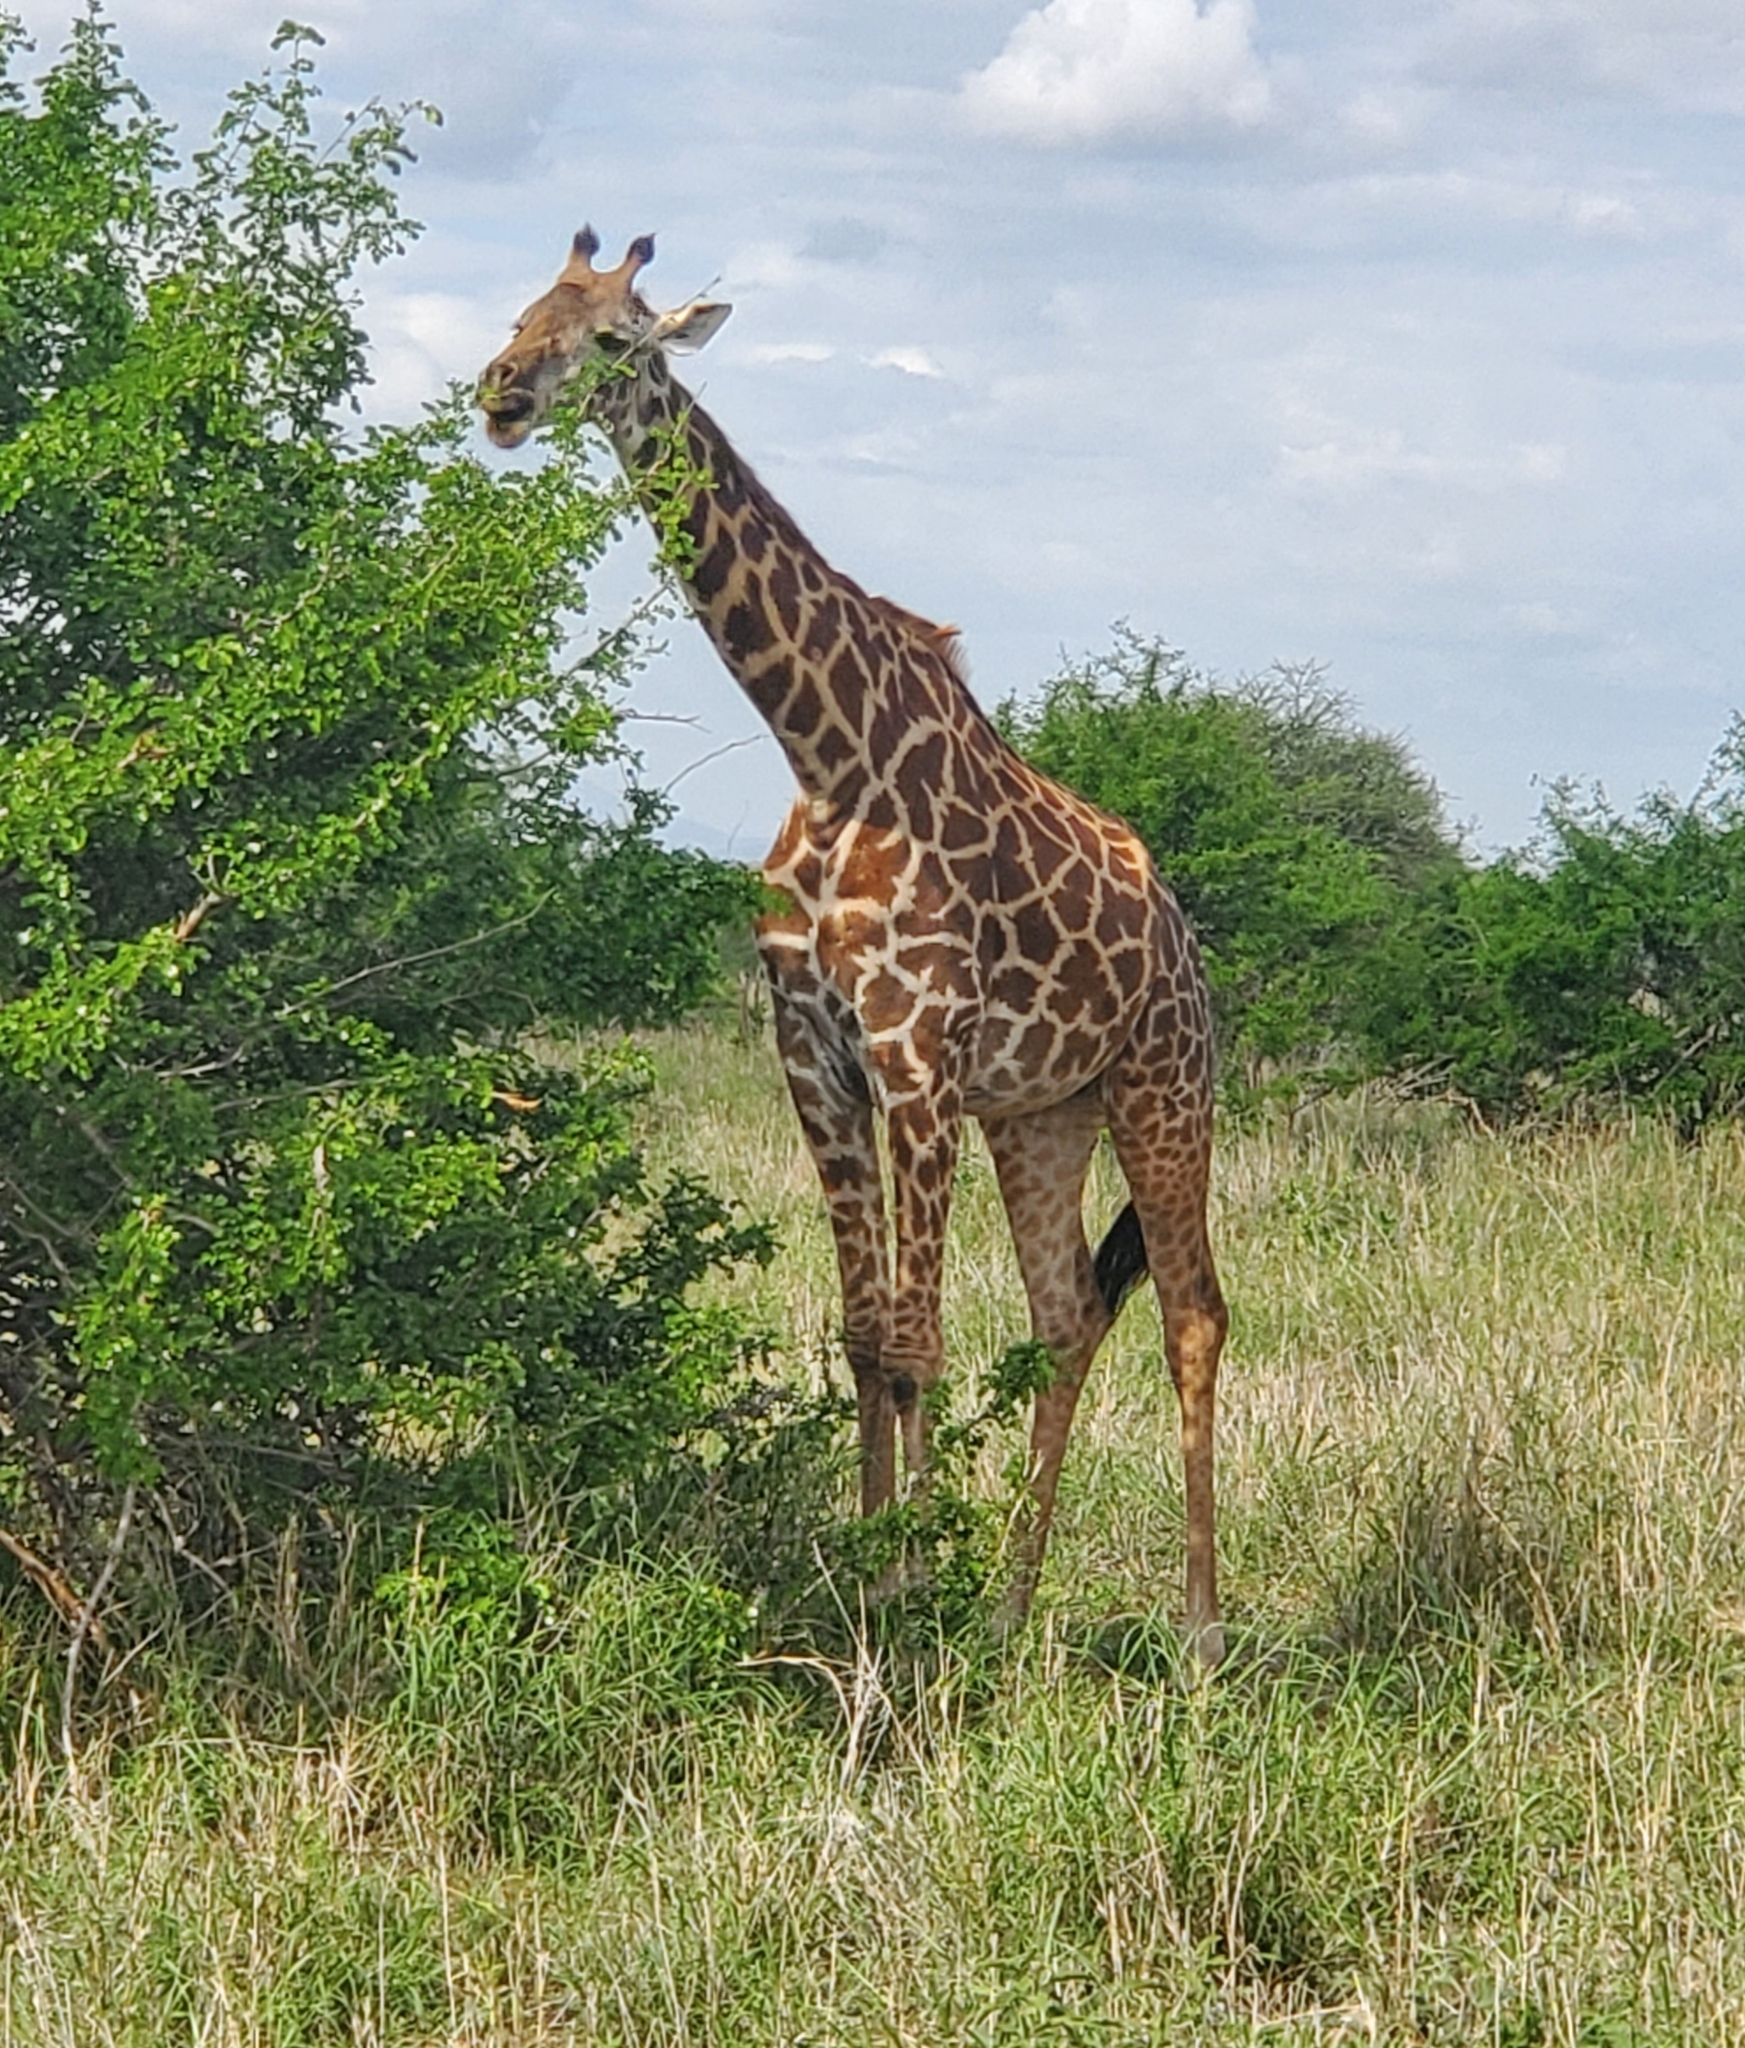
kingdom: Animalia
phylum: Chordata
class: Mammalia
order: Artiodactyla
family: Giraffidae
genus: Giraffa
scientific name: Giraffa tippelskirchi
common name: Masai giraffe
